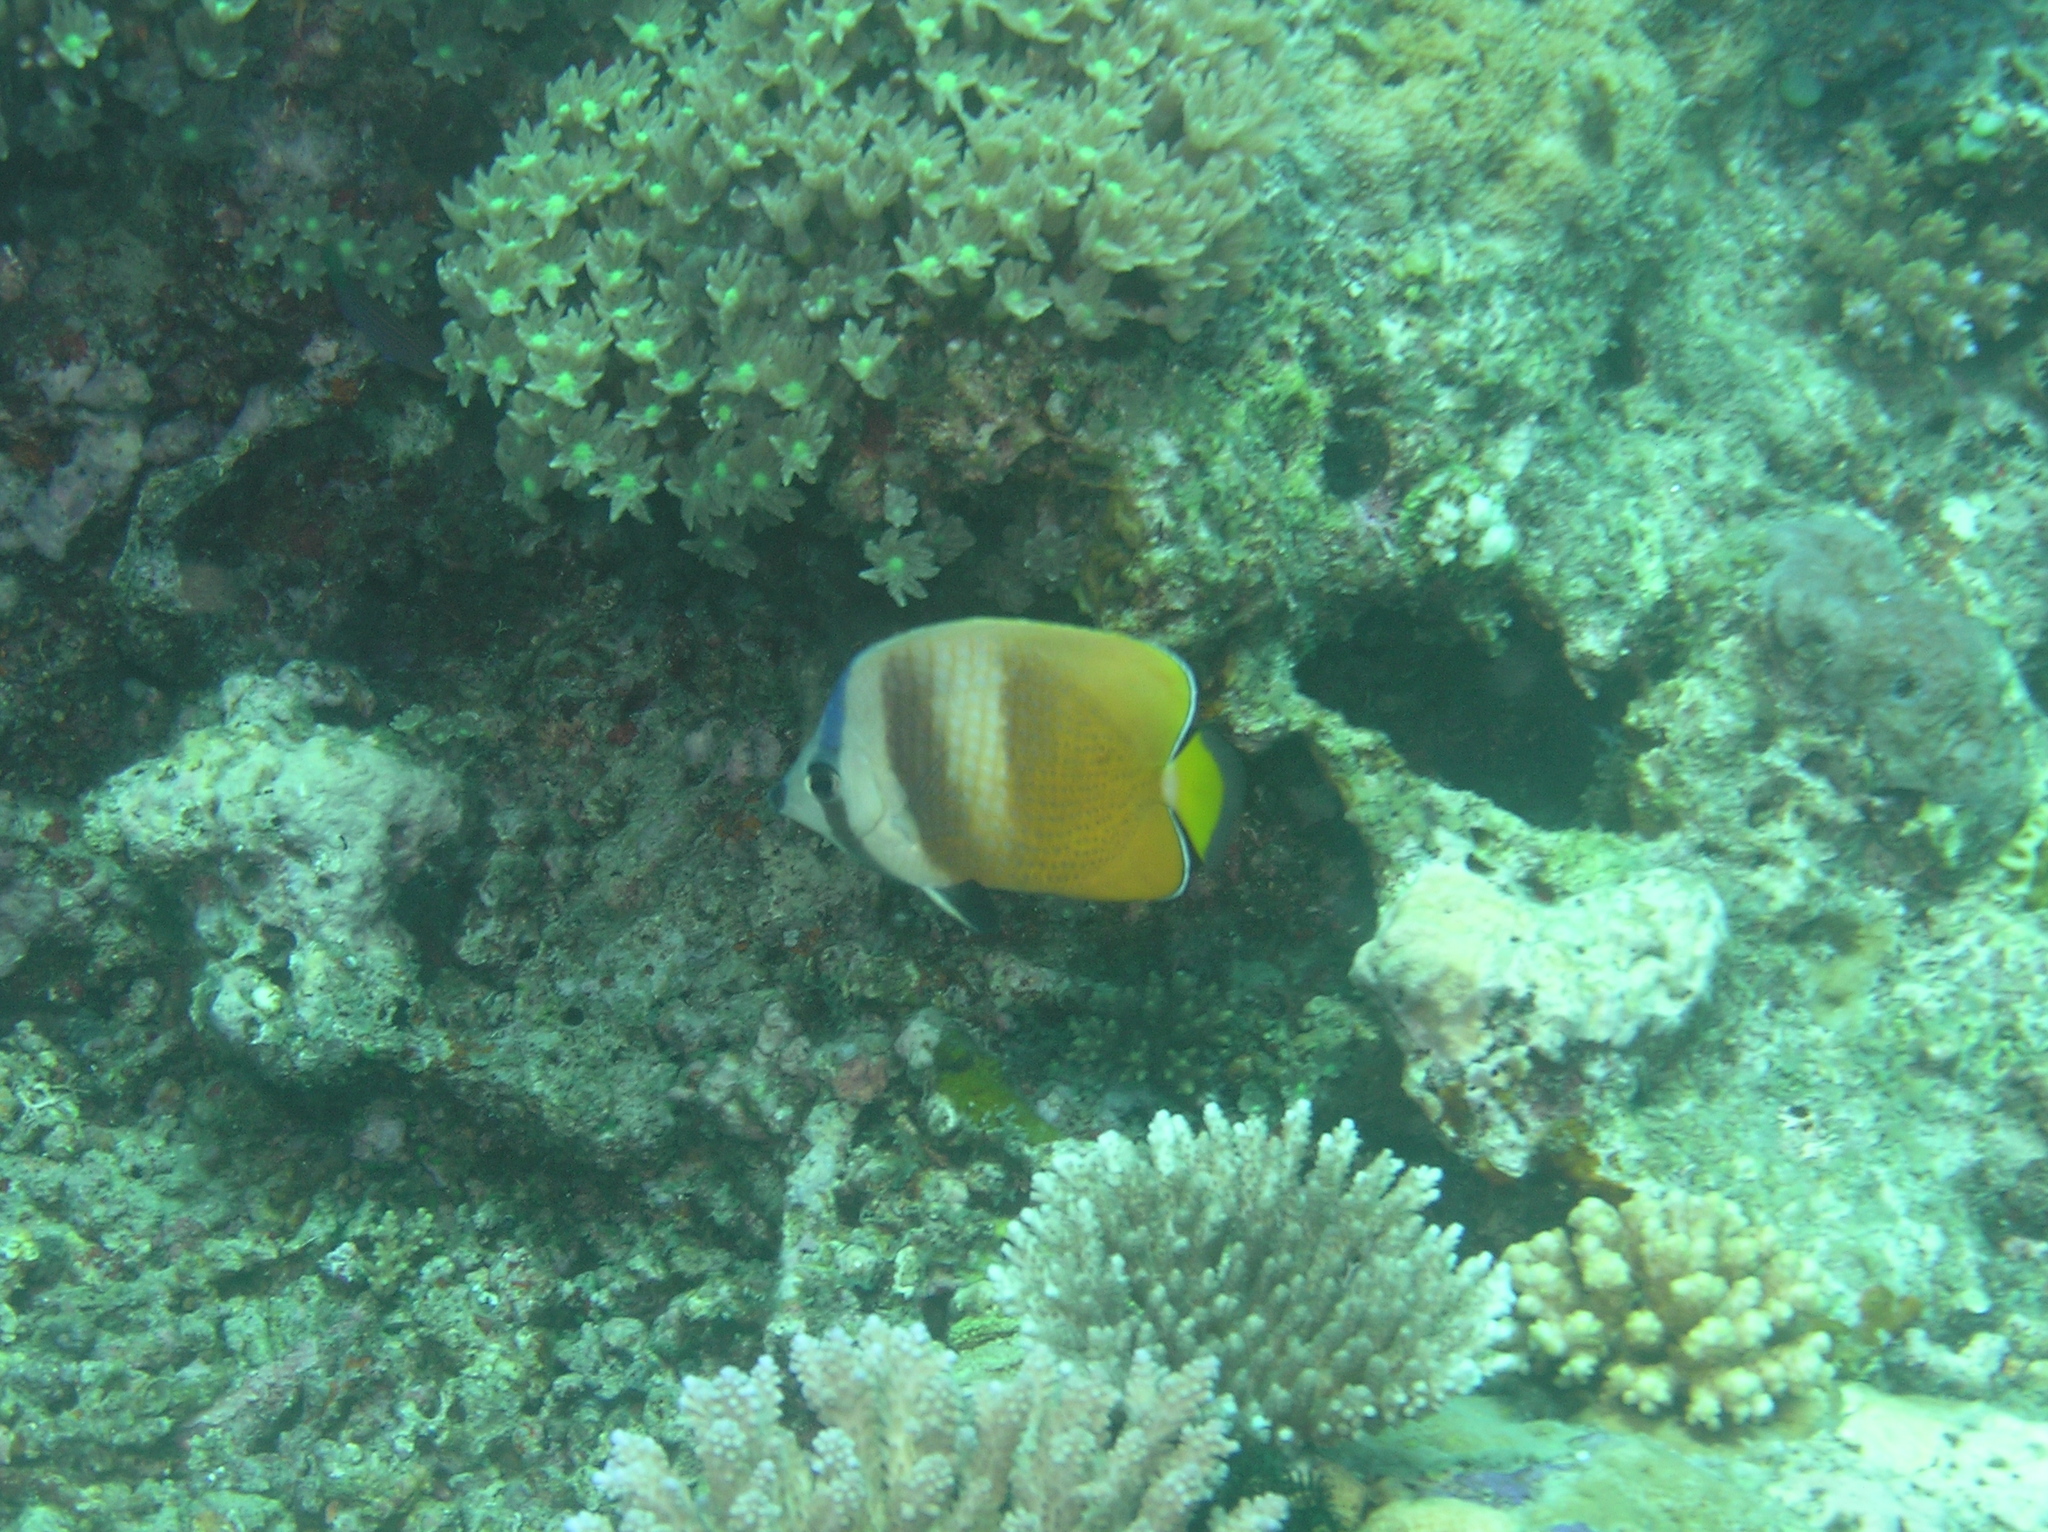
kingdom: Animalia
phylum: Chordata
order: Perciformes
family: Chaetodontidae
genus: Chaetodon
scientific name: Chaetodon kleinii
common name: Klein's butterflyfish
